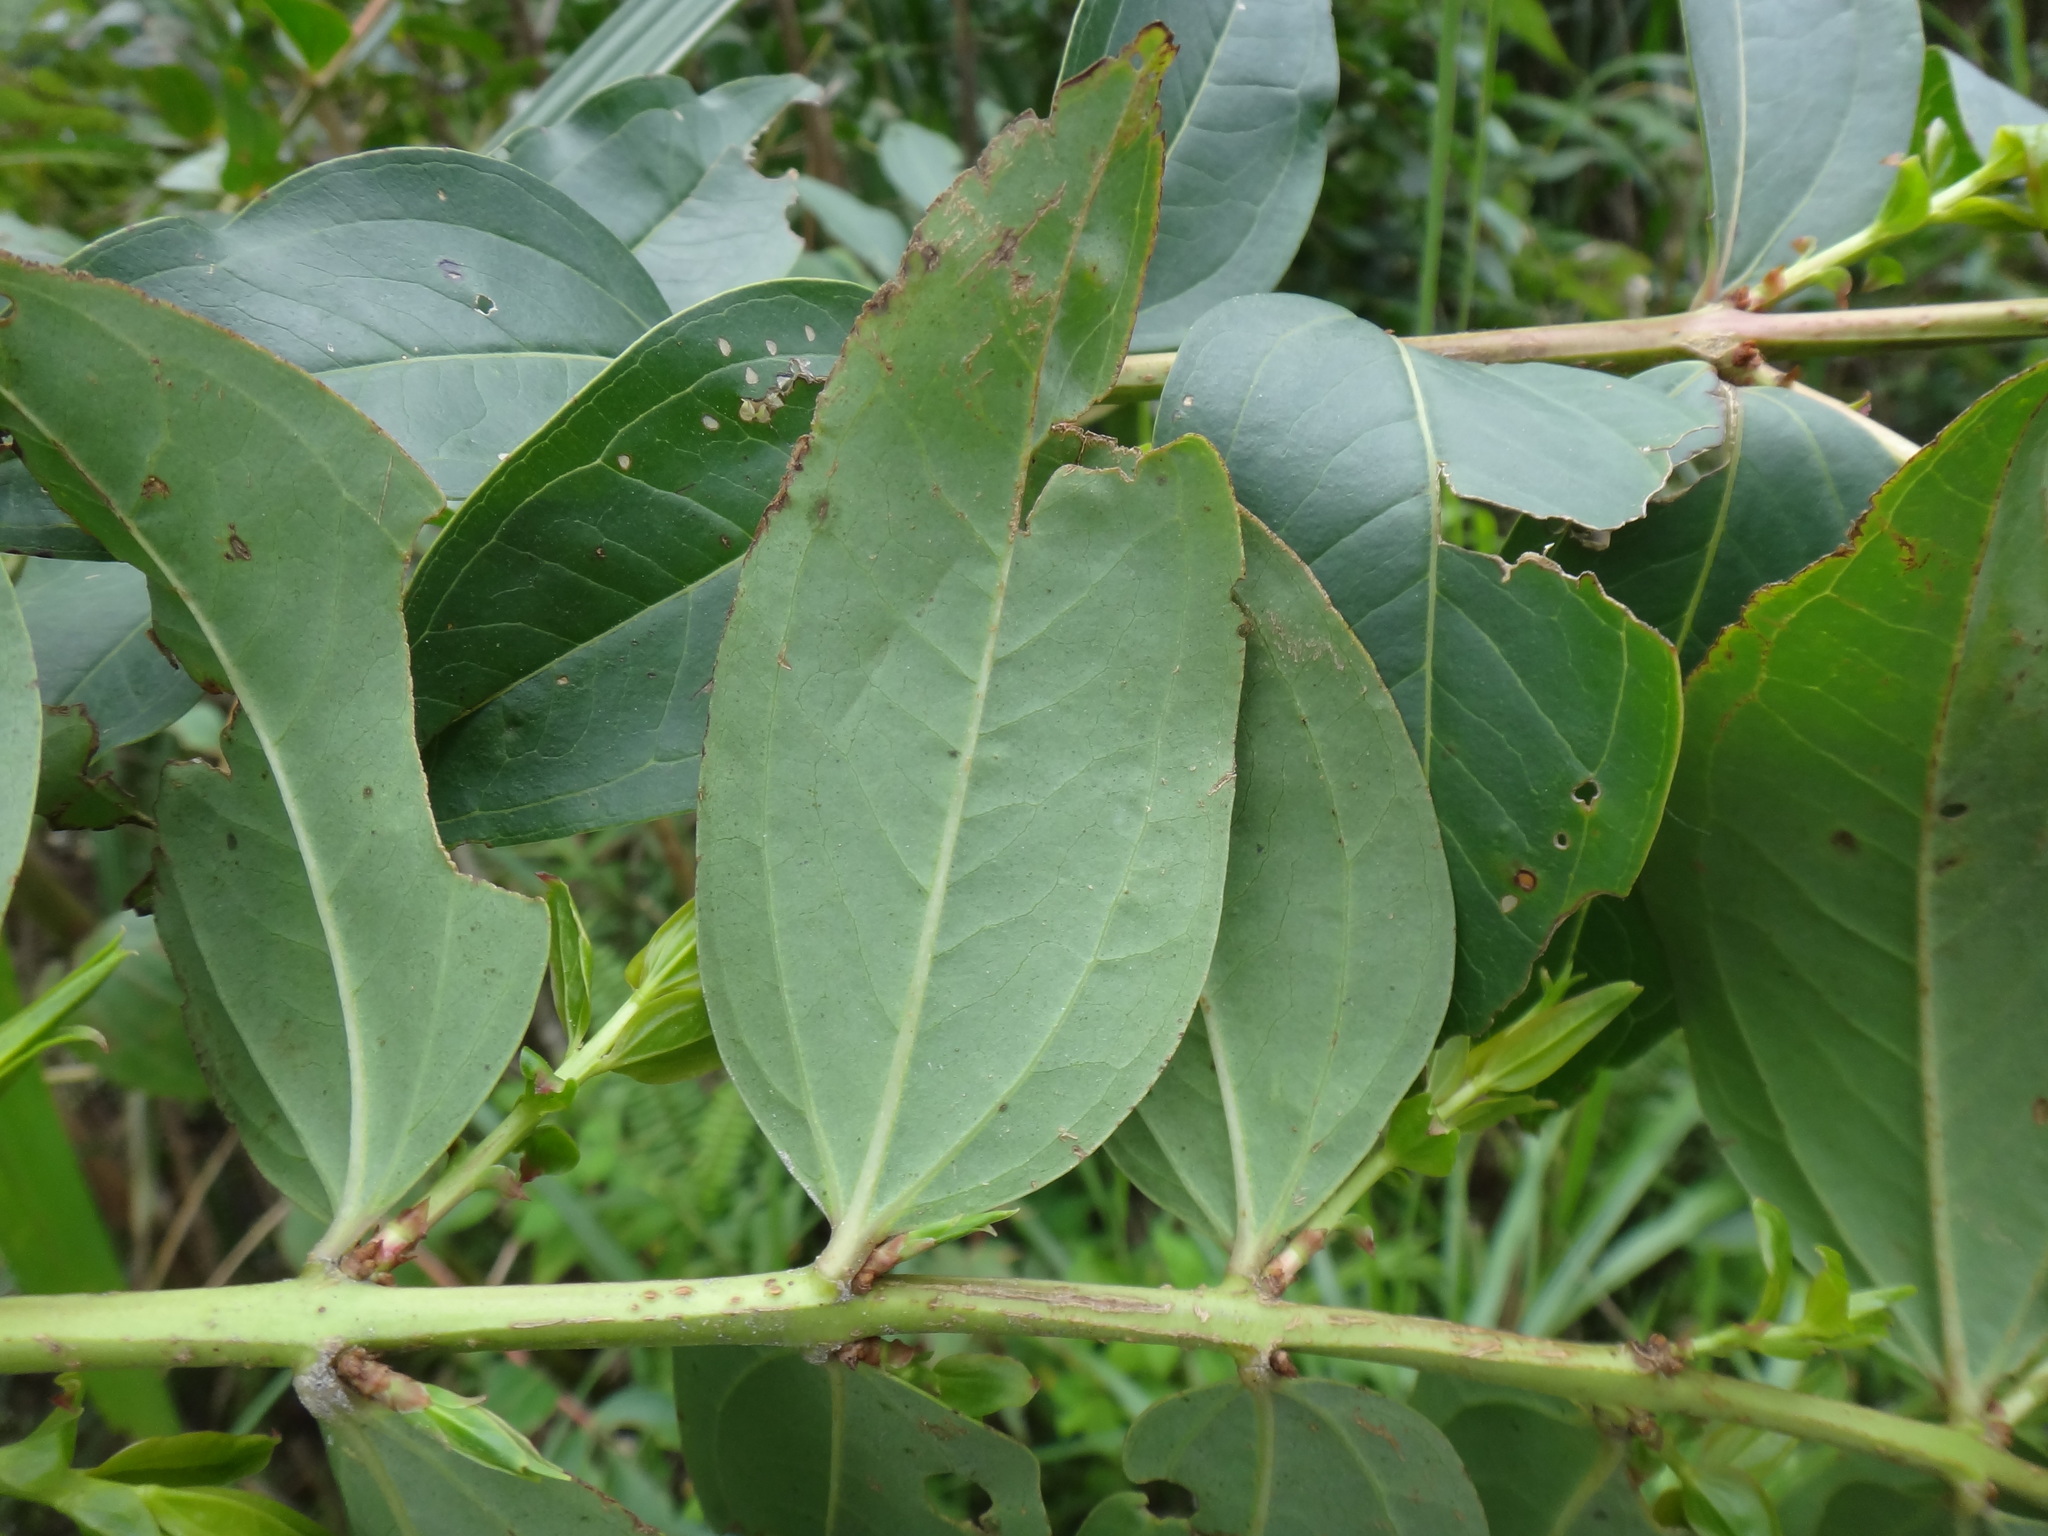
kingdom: Plantae
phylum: Tracheophyta
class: Magnoliopsida
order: Cucurbitales
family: Coriariaceae
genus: Coriaria
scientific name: Coriaria japonica
